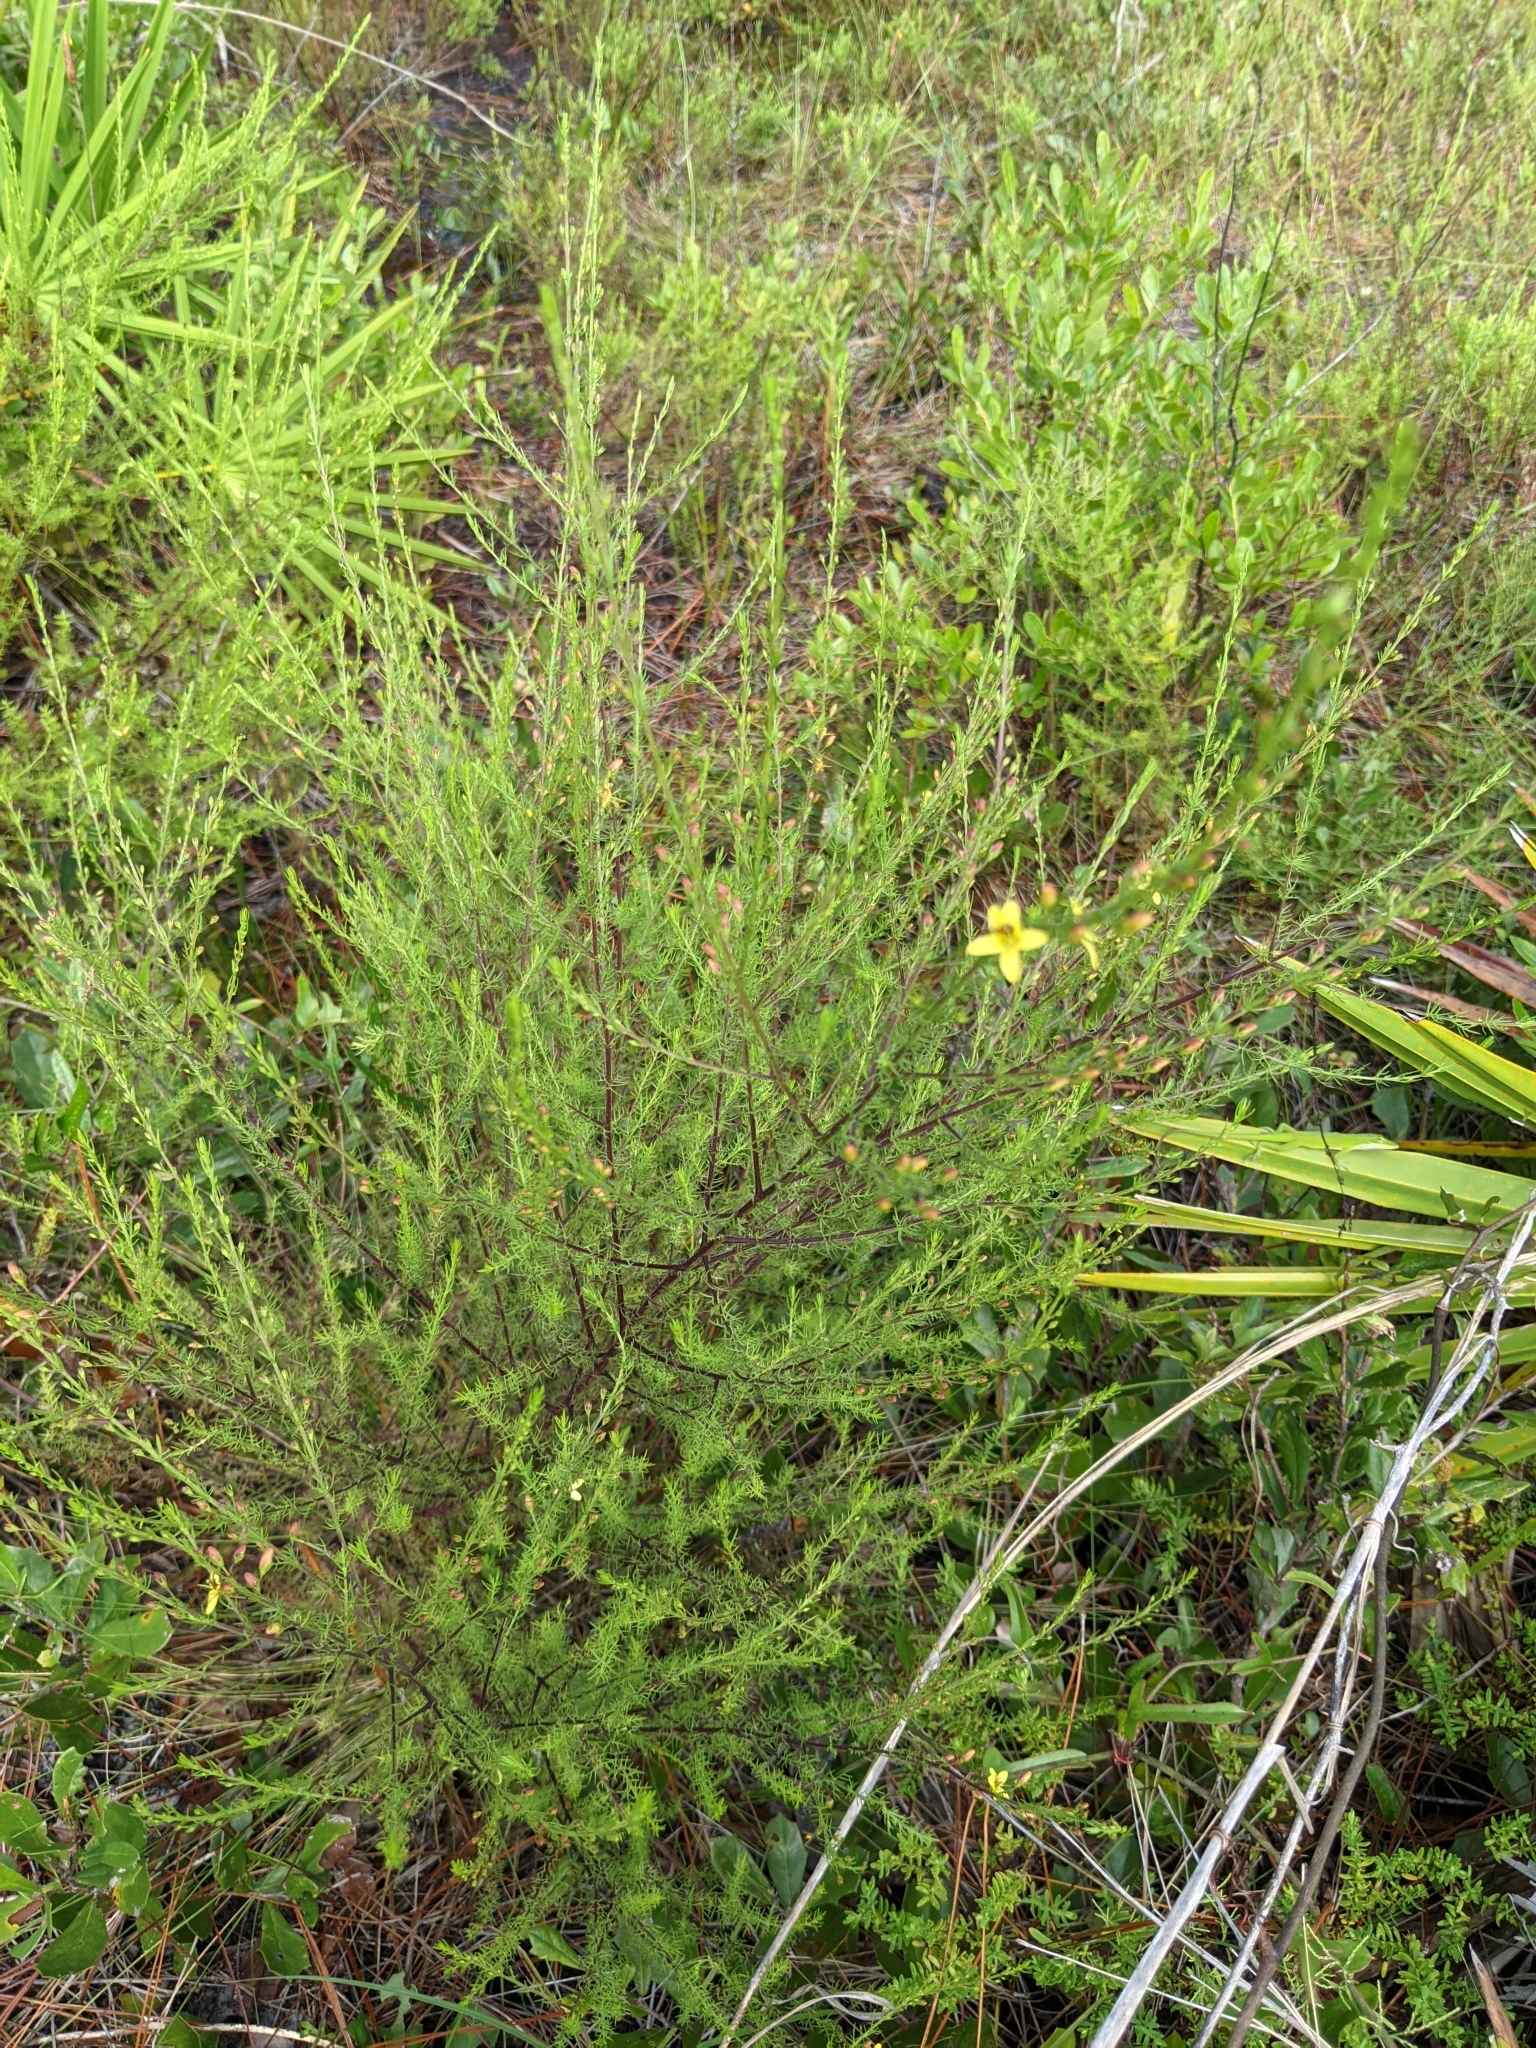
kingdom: Plantae
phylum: Tracheophyta
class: Magnoliopsida
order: Lamiales
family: Orobanchaceae
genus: Seymeria
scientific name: Seymeria cassioides
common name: Yaupon black-senna
